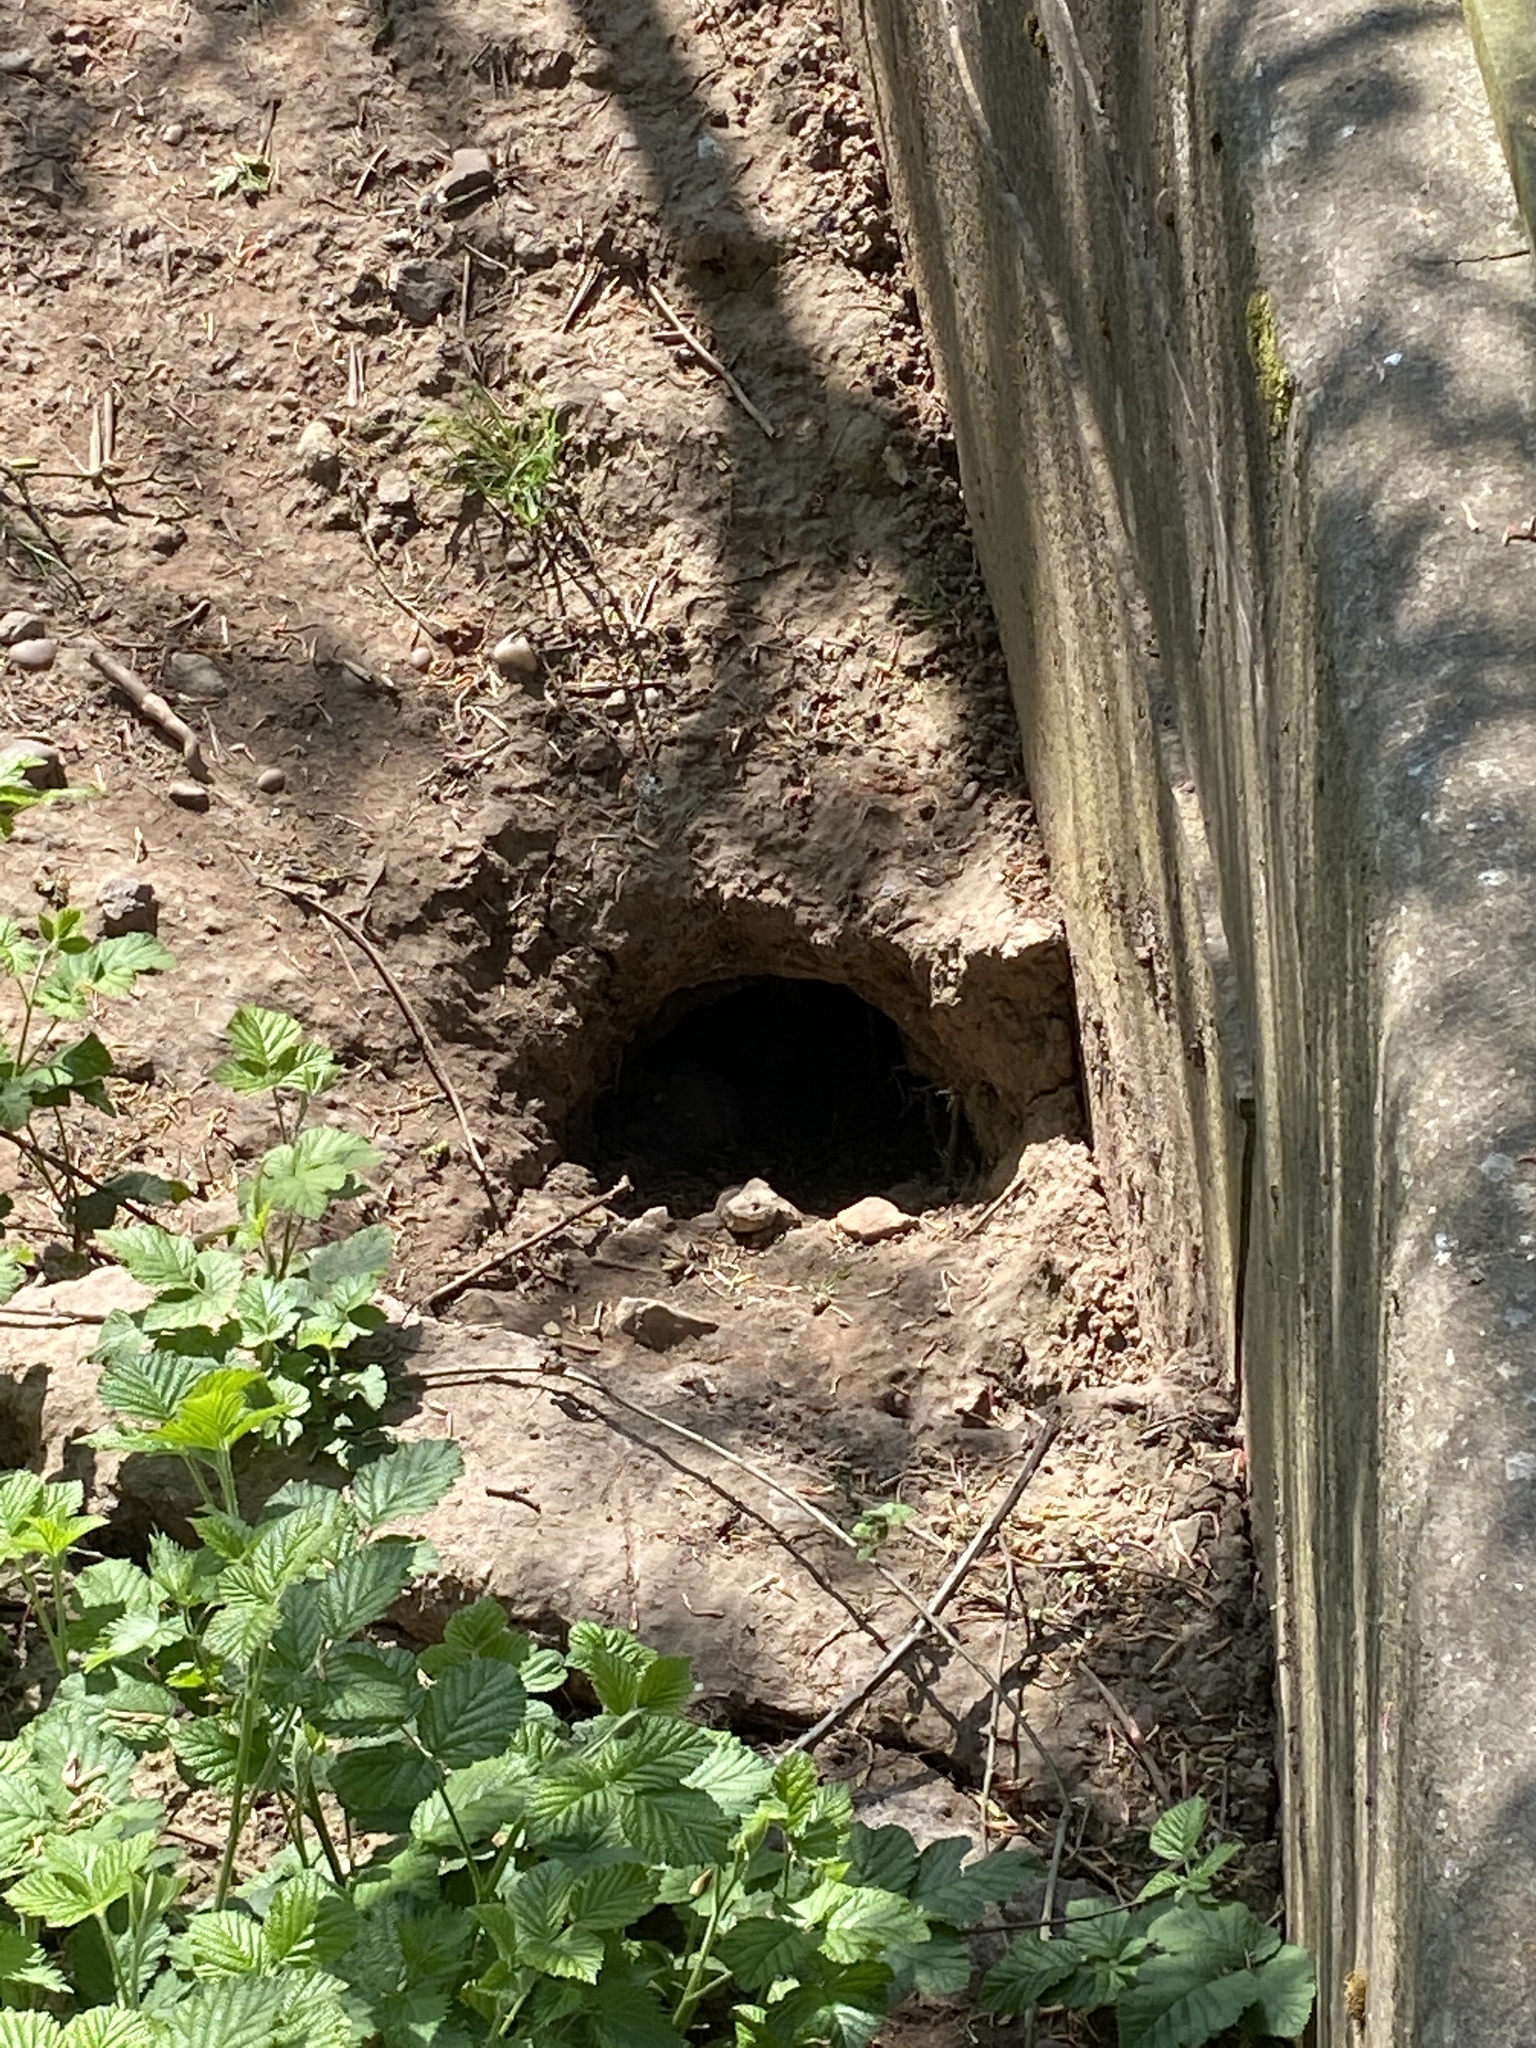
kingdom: Animalia
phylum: Chordata
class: Mammalia
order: Carnivora
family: Mustelidae
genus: Meles
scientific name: Meles meles
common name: Eurasian badger
